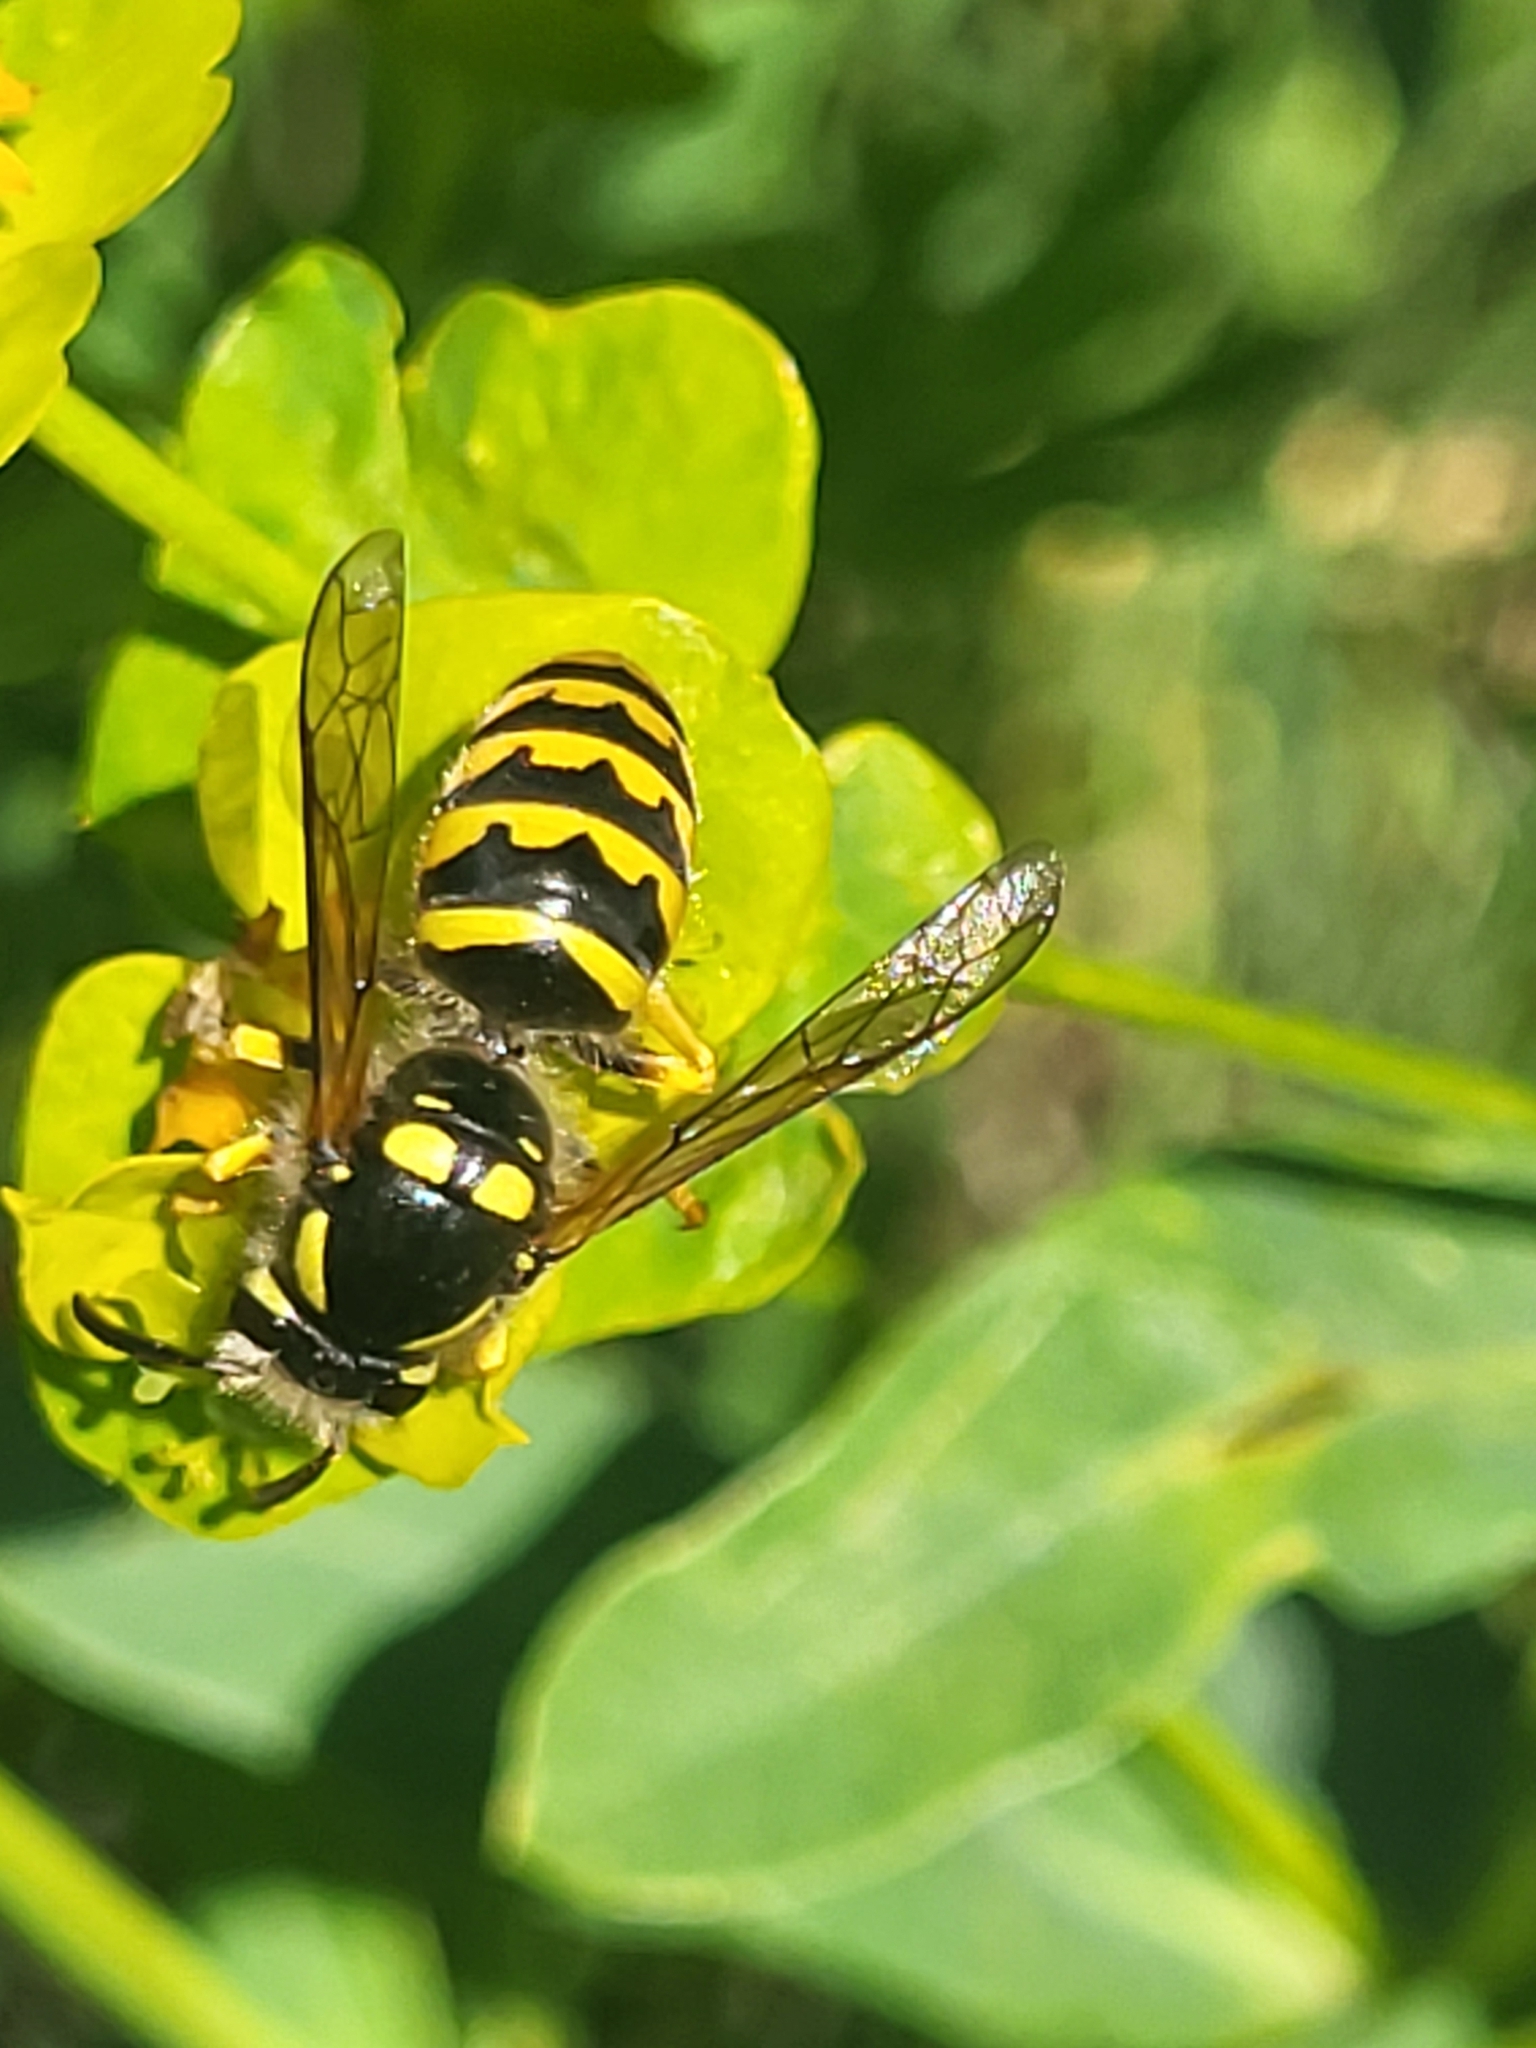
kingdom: Animalia
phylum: Arthropoda
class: Insecta
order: Hymenoptera
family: Vespidae
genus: Dolichovespula
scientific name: Dolichovespula sylvestris
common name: Tree wasp
